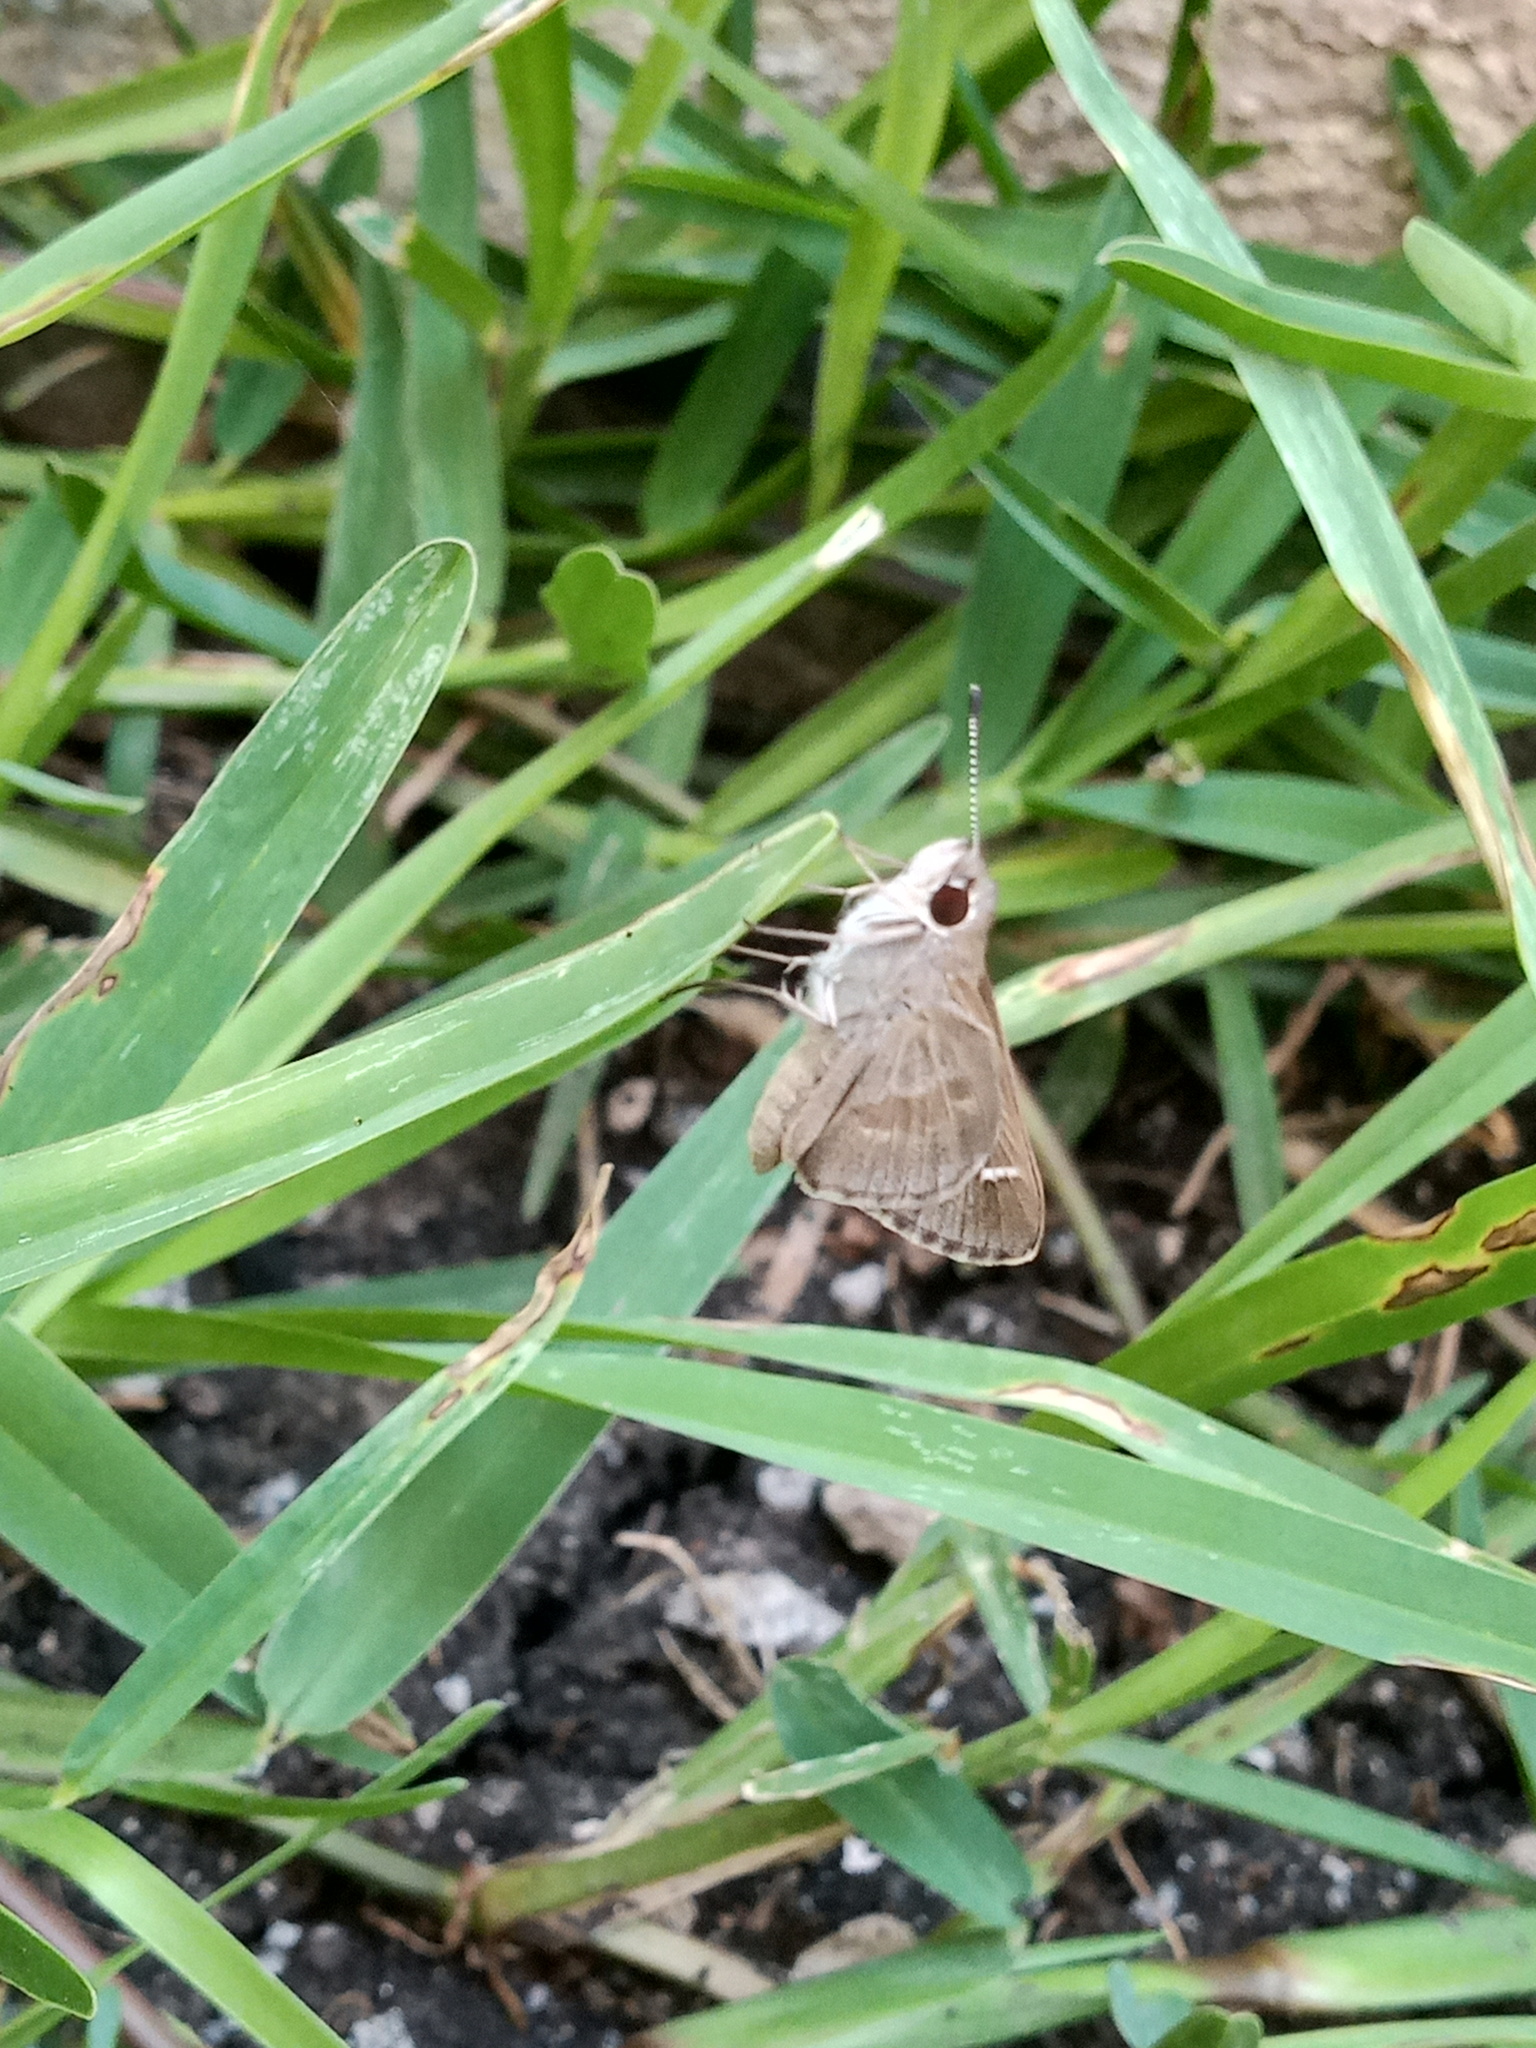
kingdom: Animalia
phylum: Arthropoda
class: Insecta
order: Lepidoptera
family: Hesperiidae
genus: Lerodea
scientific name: Lerodea arabus
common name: Violet-clouded skipper
